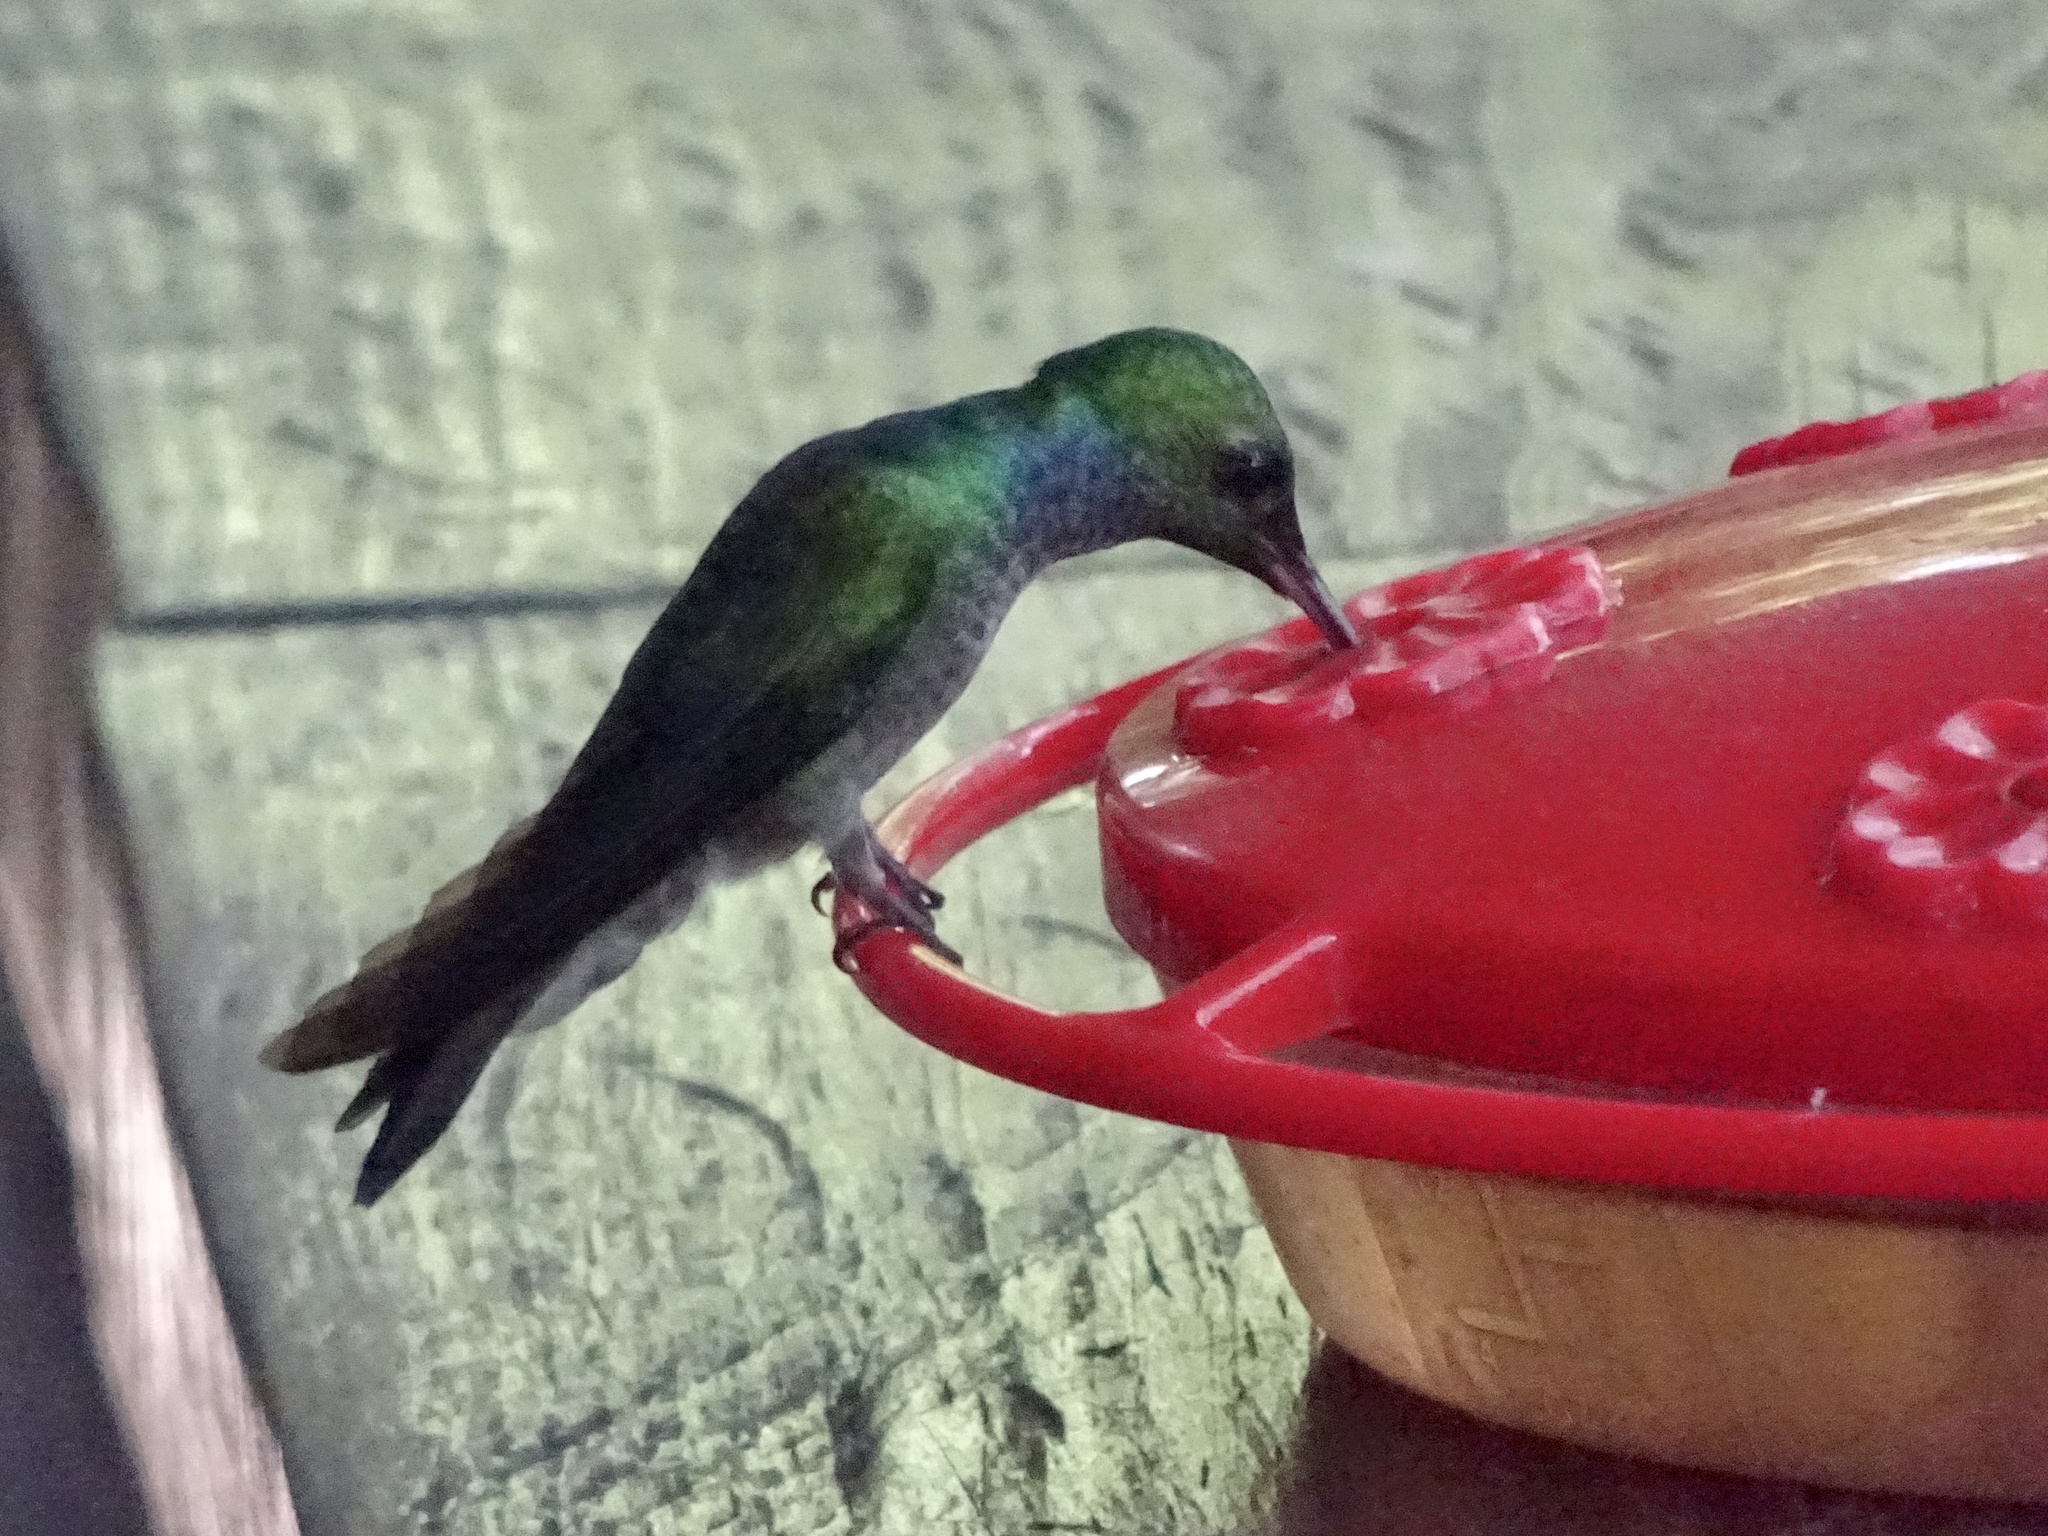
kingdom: Animalia
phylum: Chordata
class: Aves
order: Apodiformes
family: Trochilidae
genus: Polyerata
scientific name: Polyerata amabilis
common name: Blue-chested hummingbird
